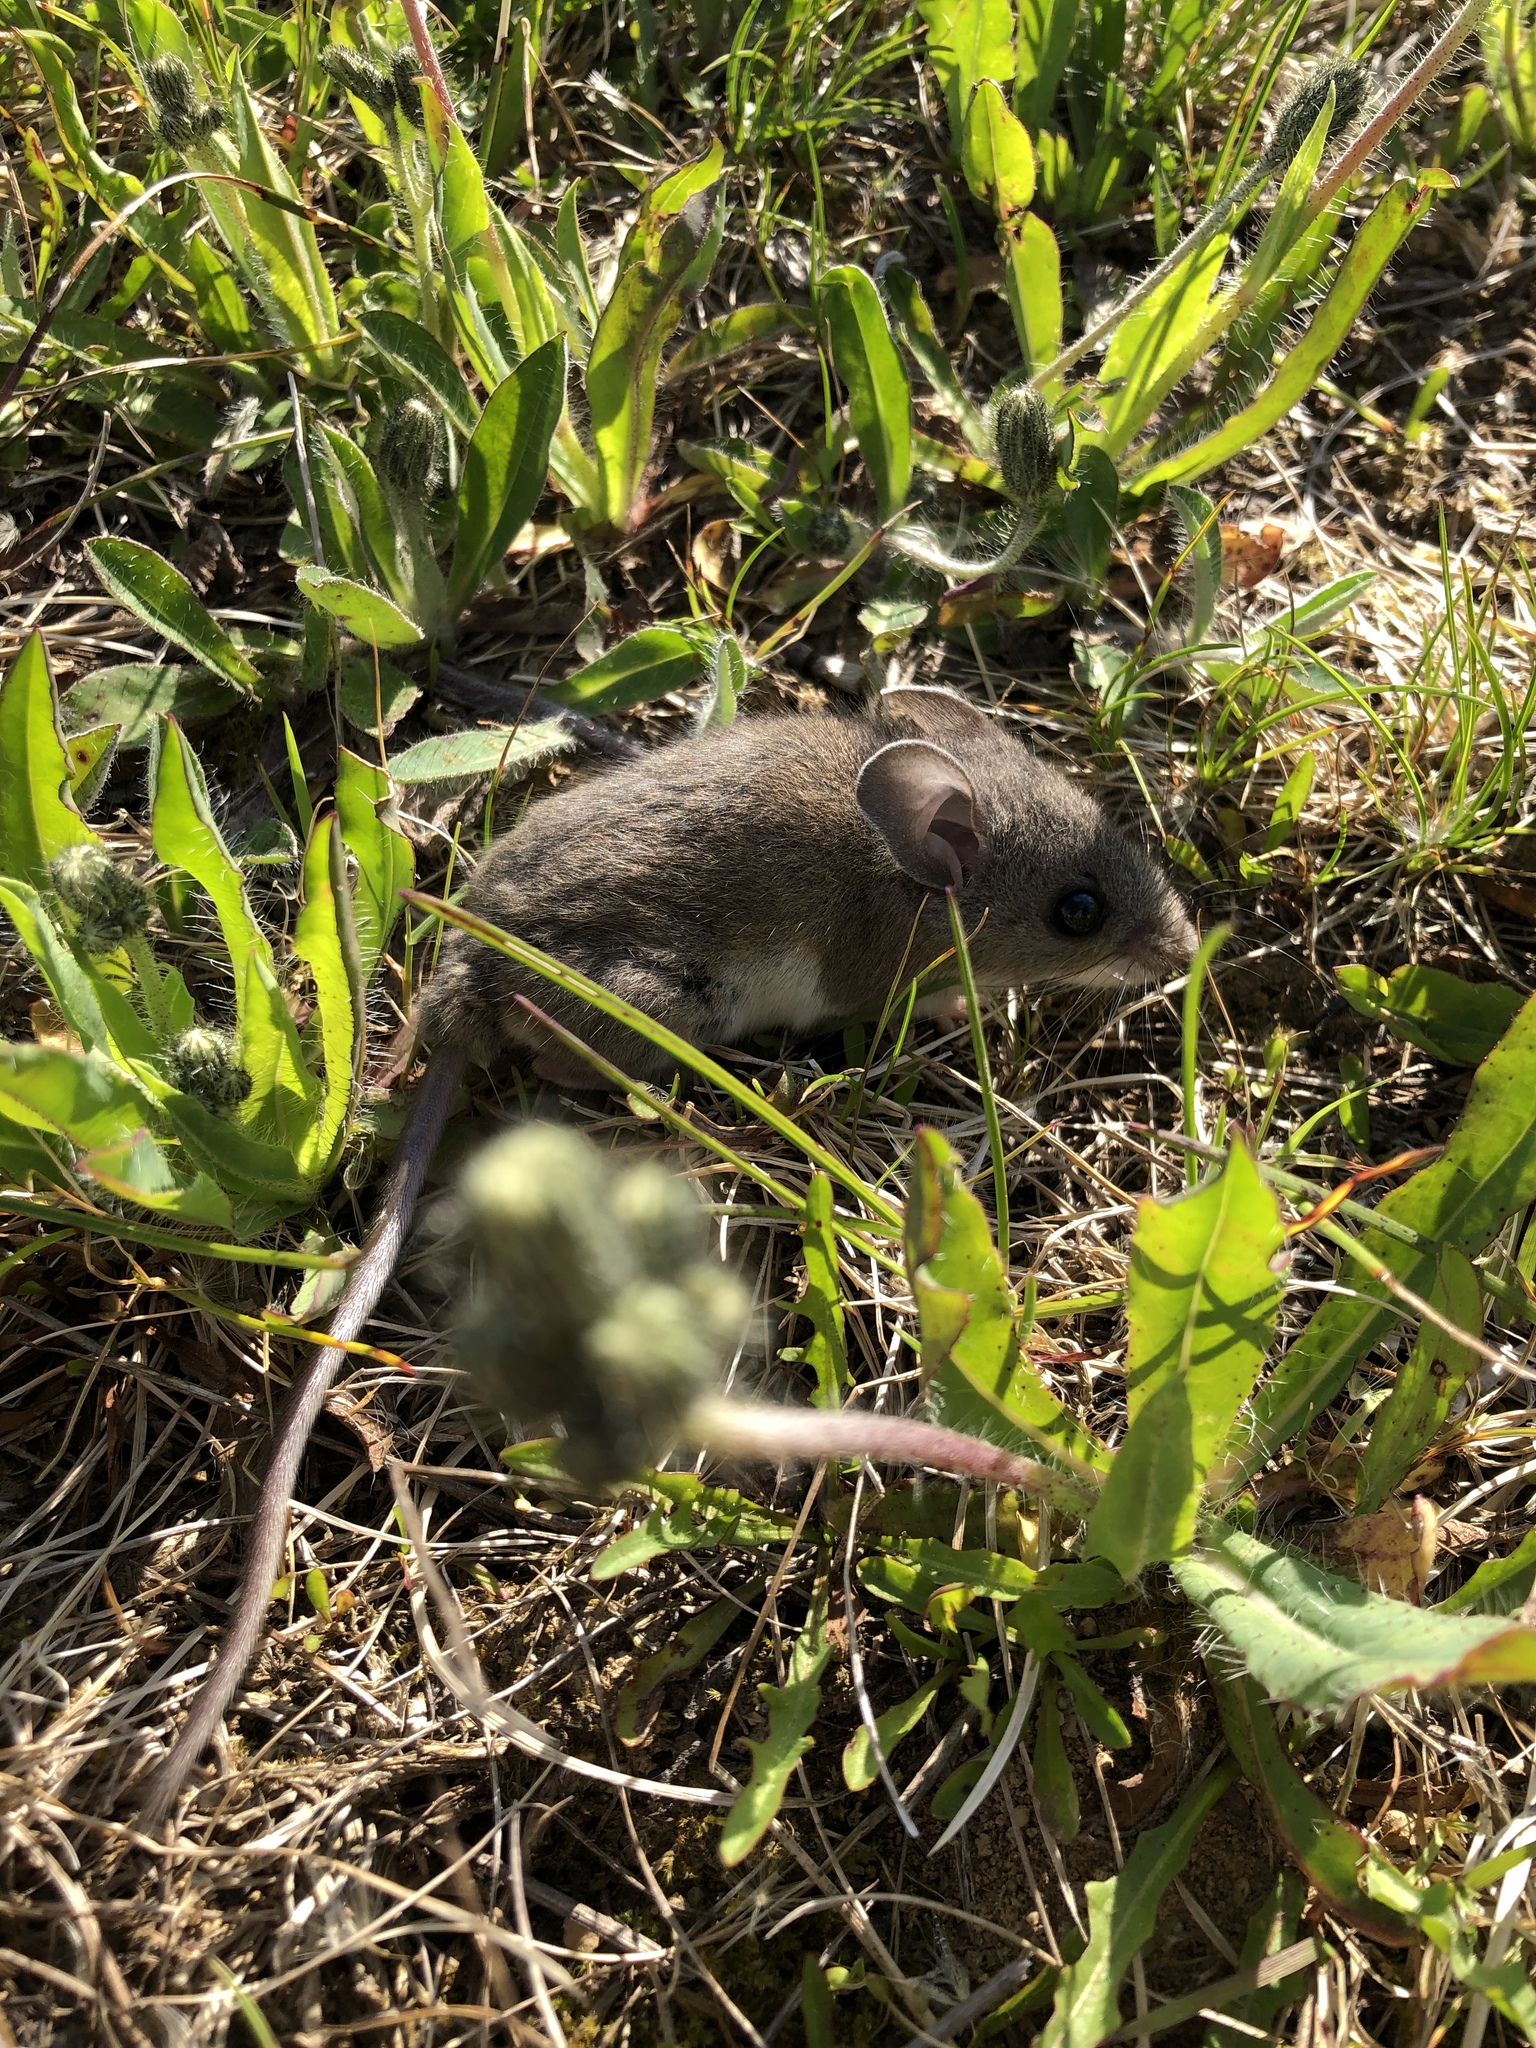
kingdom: Animalia
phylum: Chordata
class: Mammalia
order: Rodentia
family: Cricetidae
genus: Peromyscus
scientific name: Peromyscus maniculatus
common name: Deer mouse
